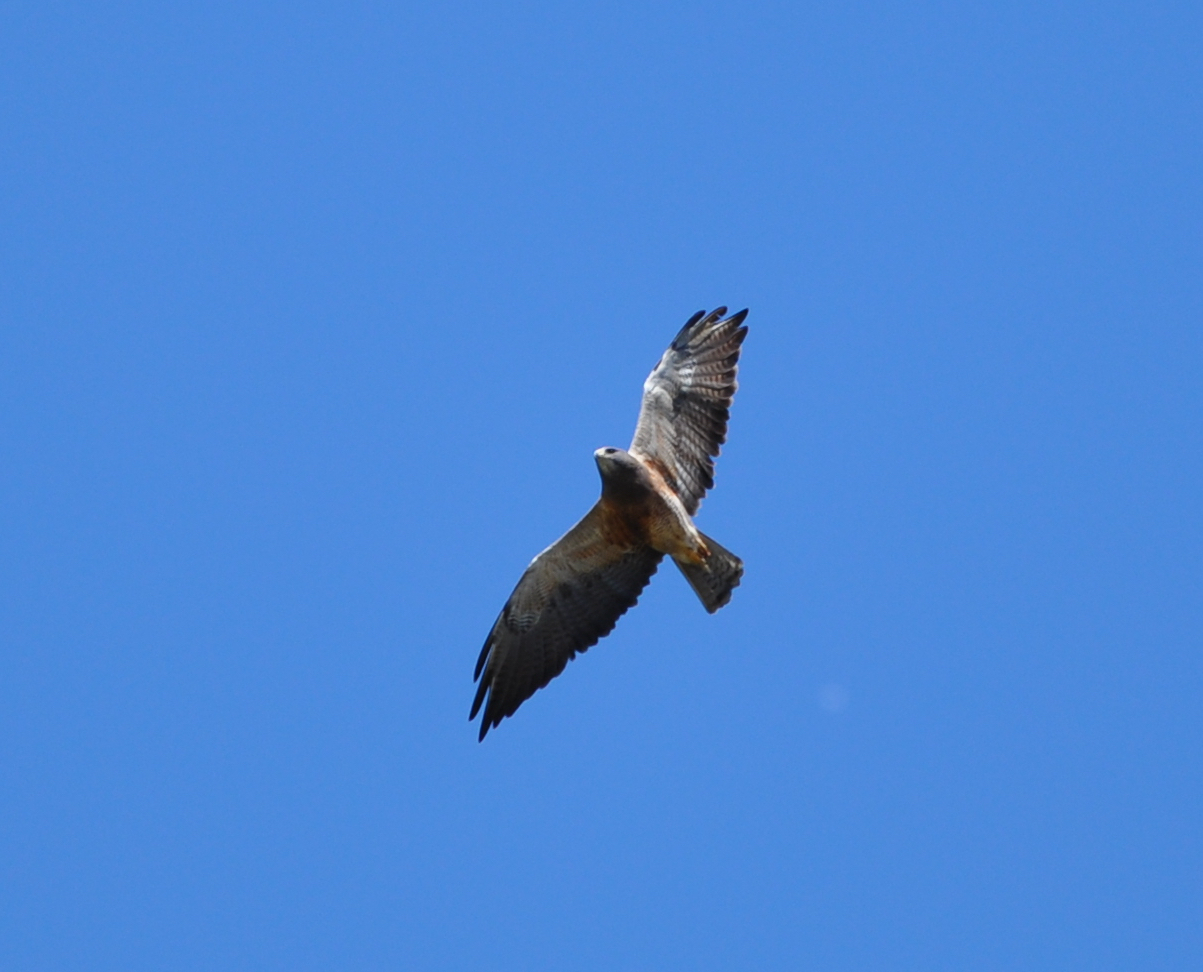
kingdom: Animalia
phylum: Chordata
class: Aves
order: Accipitriformes
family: Accipitridae
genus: Buteo
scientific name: Buteo swainsoni
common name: Swainson's hawk
